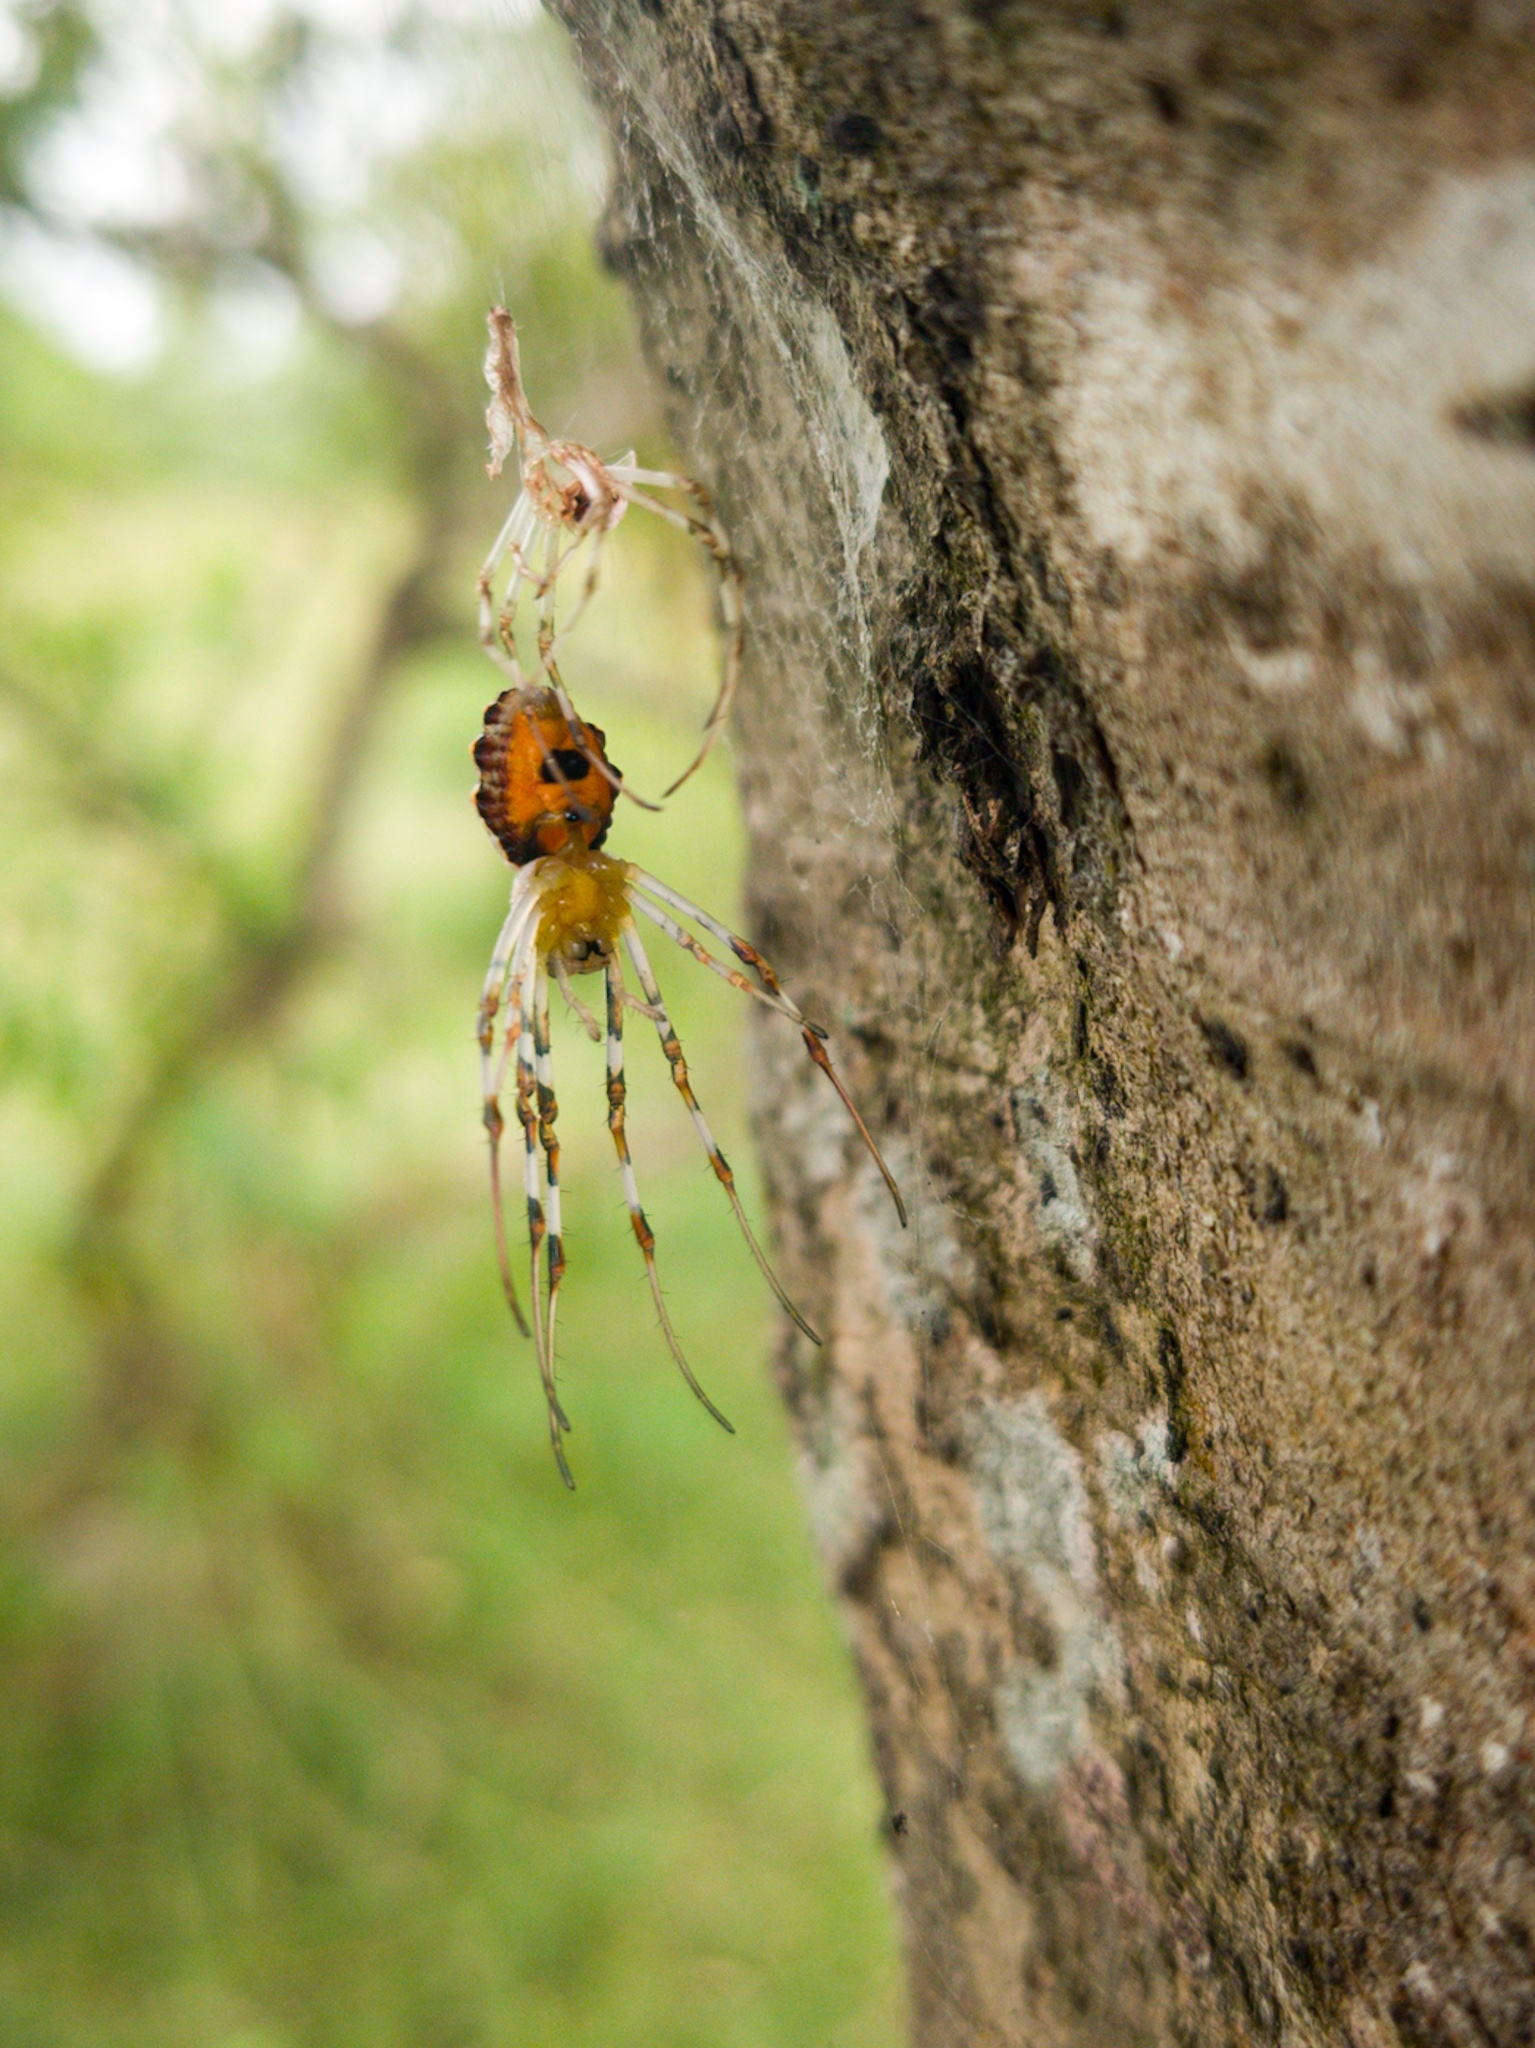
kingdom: Animalia
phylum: Arthropoda
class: Arachnida
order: Araneae
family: Araneidae
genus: Herennia
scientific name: Herennia multipuncta
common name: Spotted coin spider
